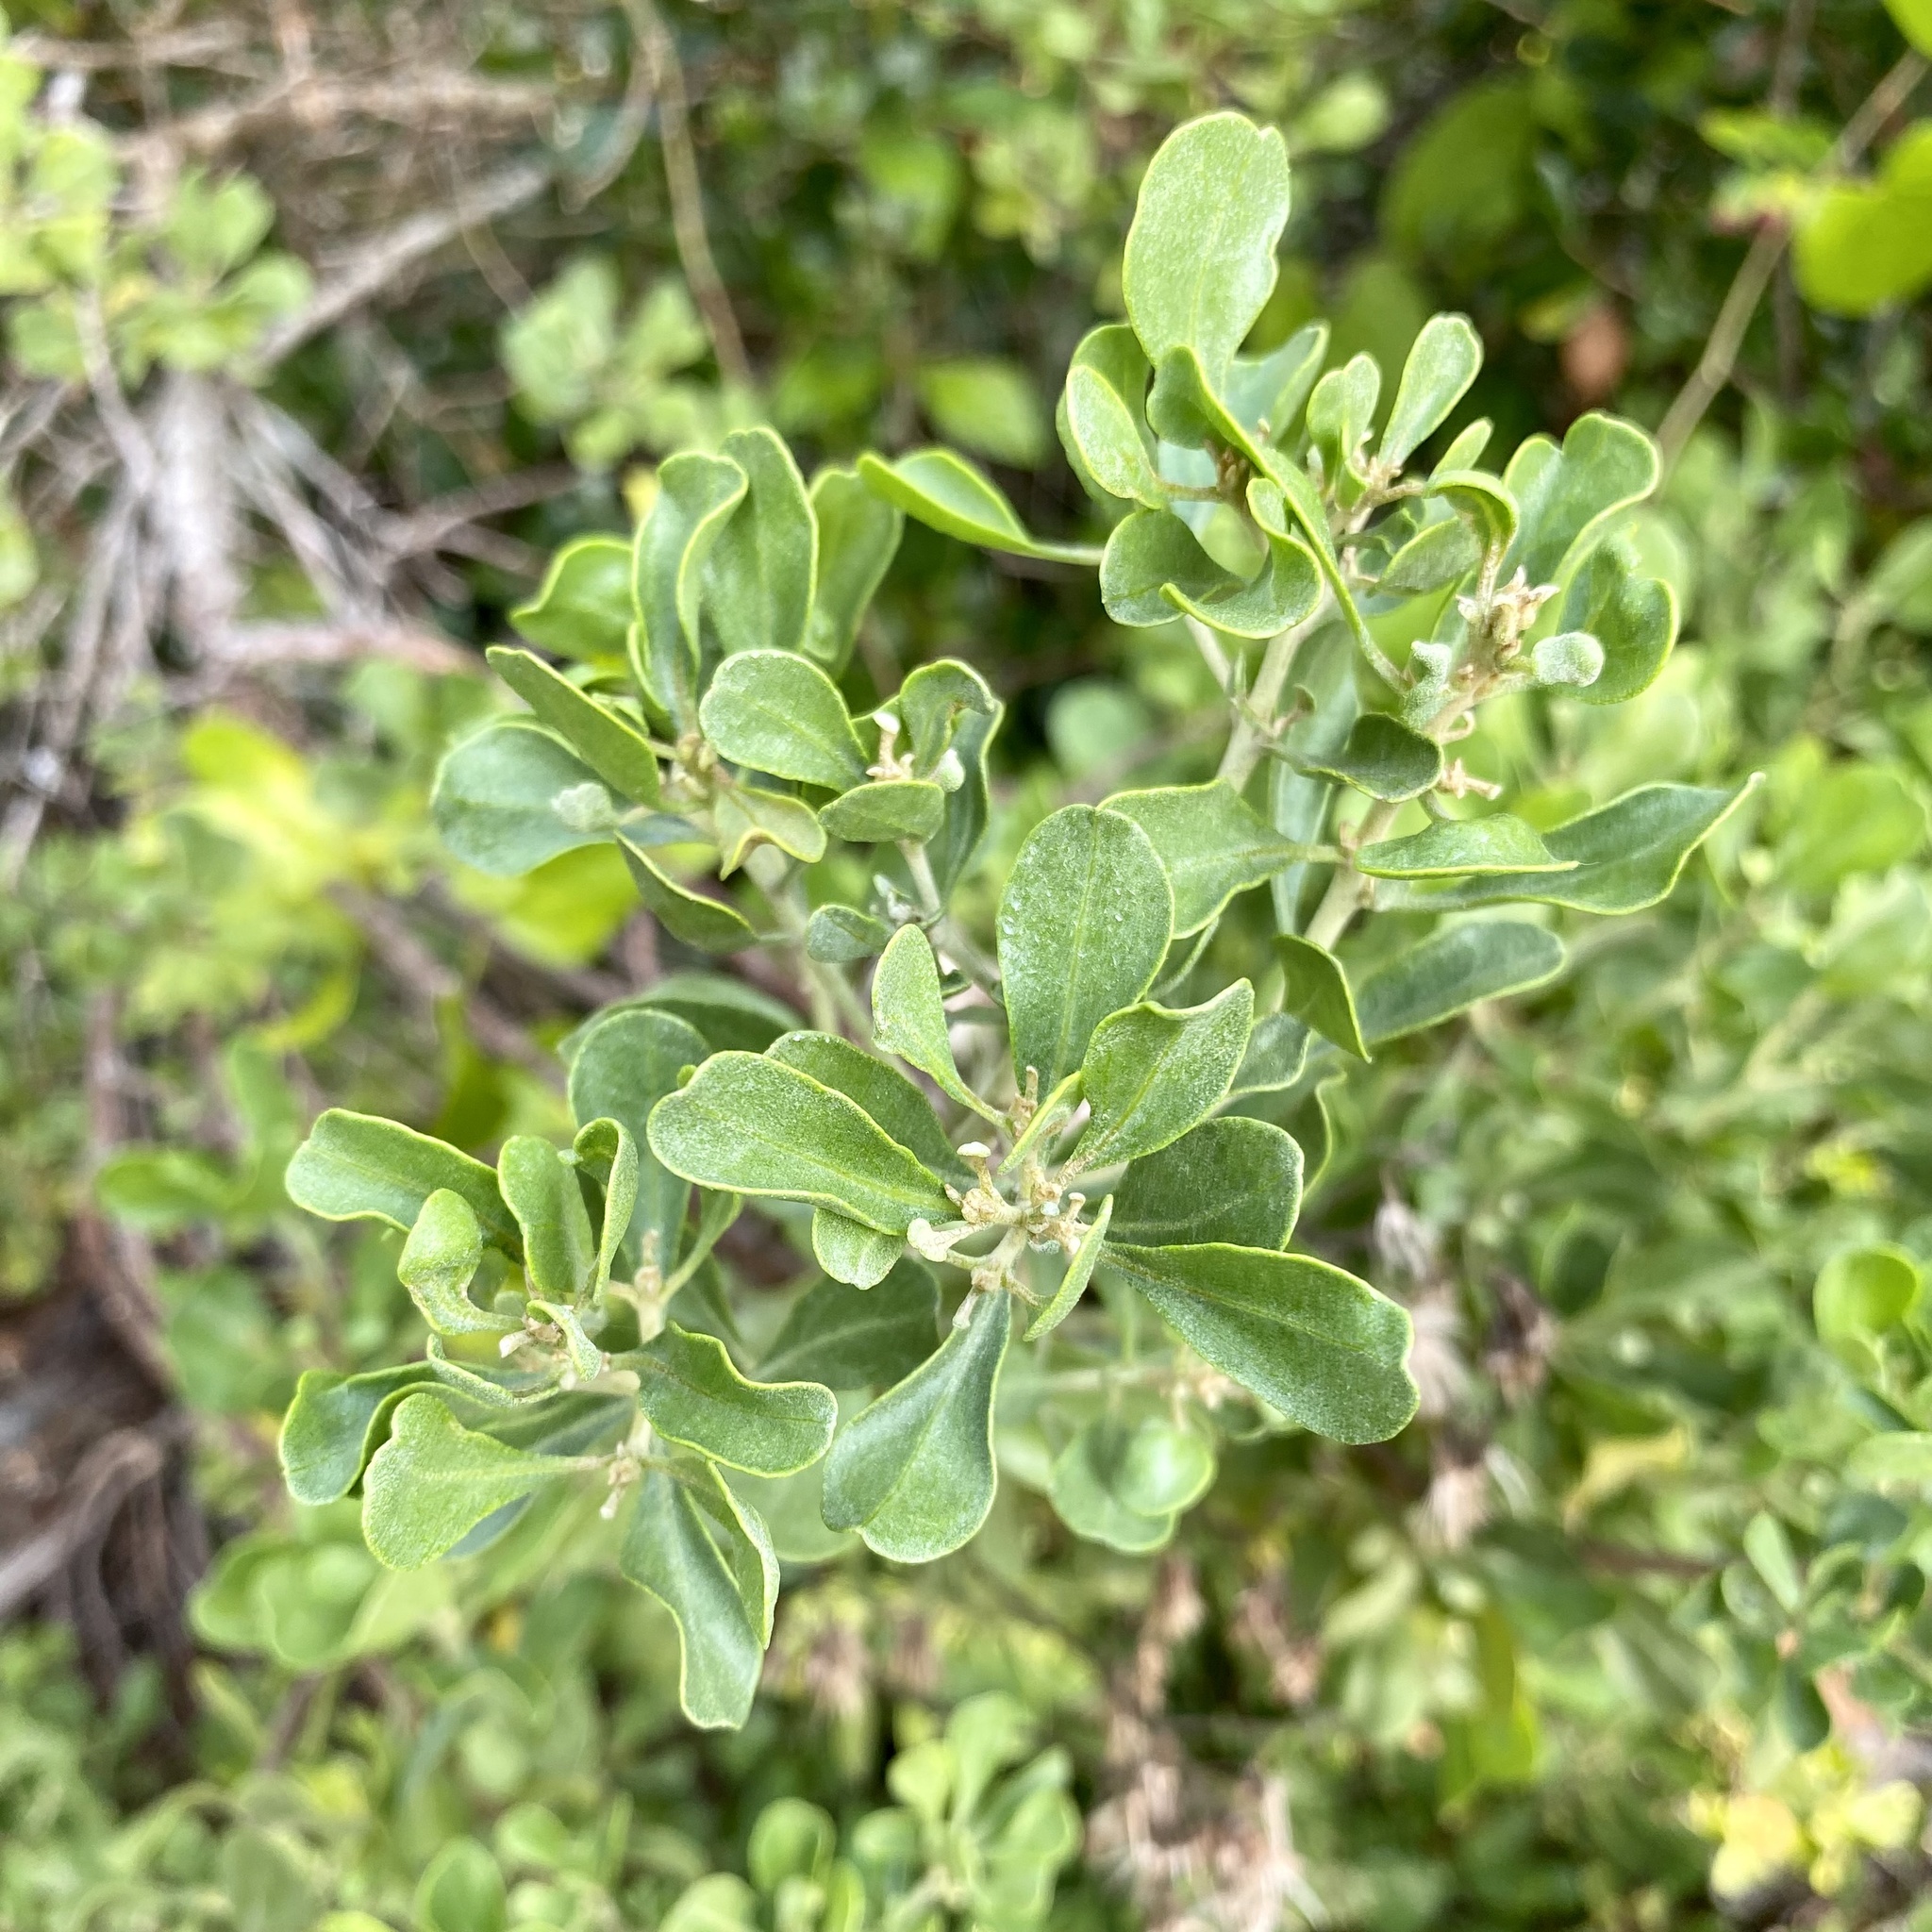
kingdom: Plantae
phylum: Tracheophyta
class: Magnoliopsida
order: Asterales
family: Asteraceae
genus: Garberia
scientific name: Garberia heterophylla
